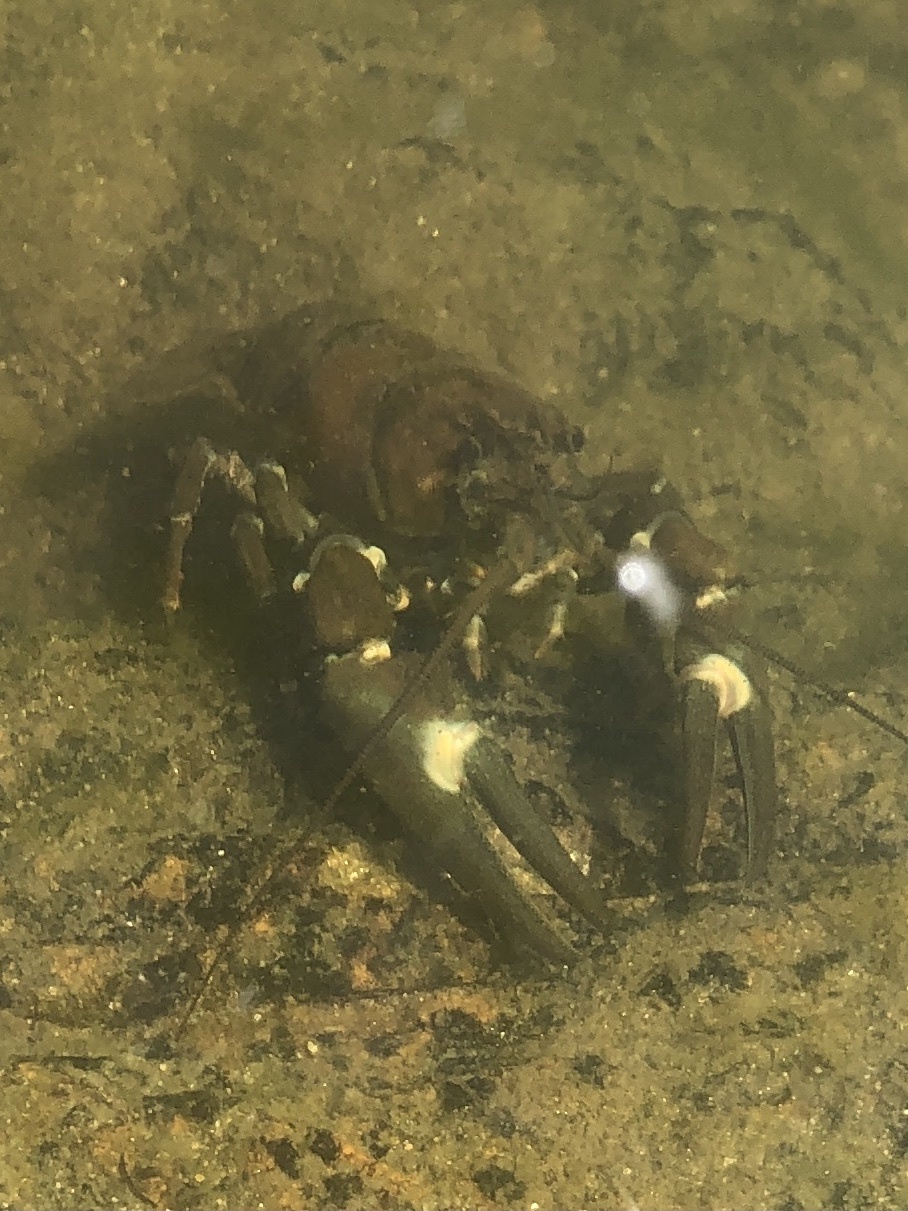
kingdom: Animalia
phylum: Arthropoda
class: Malacostraca
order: Decapoda
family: Astacidae
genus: Pacifastacus
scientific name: Pacifastacus leniusculus
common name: Signal crayfish
